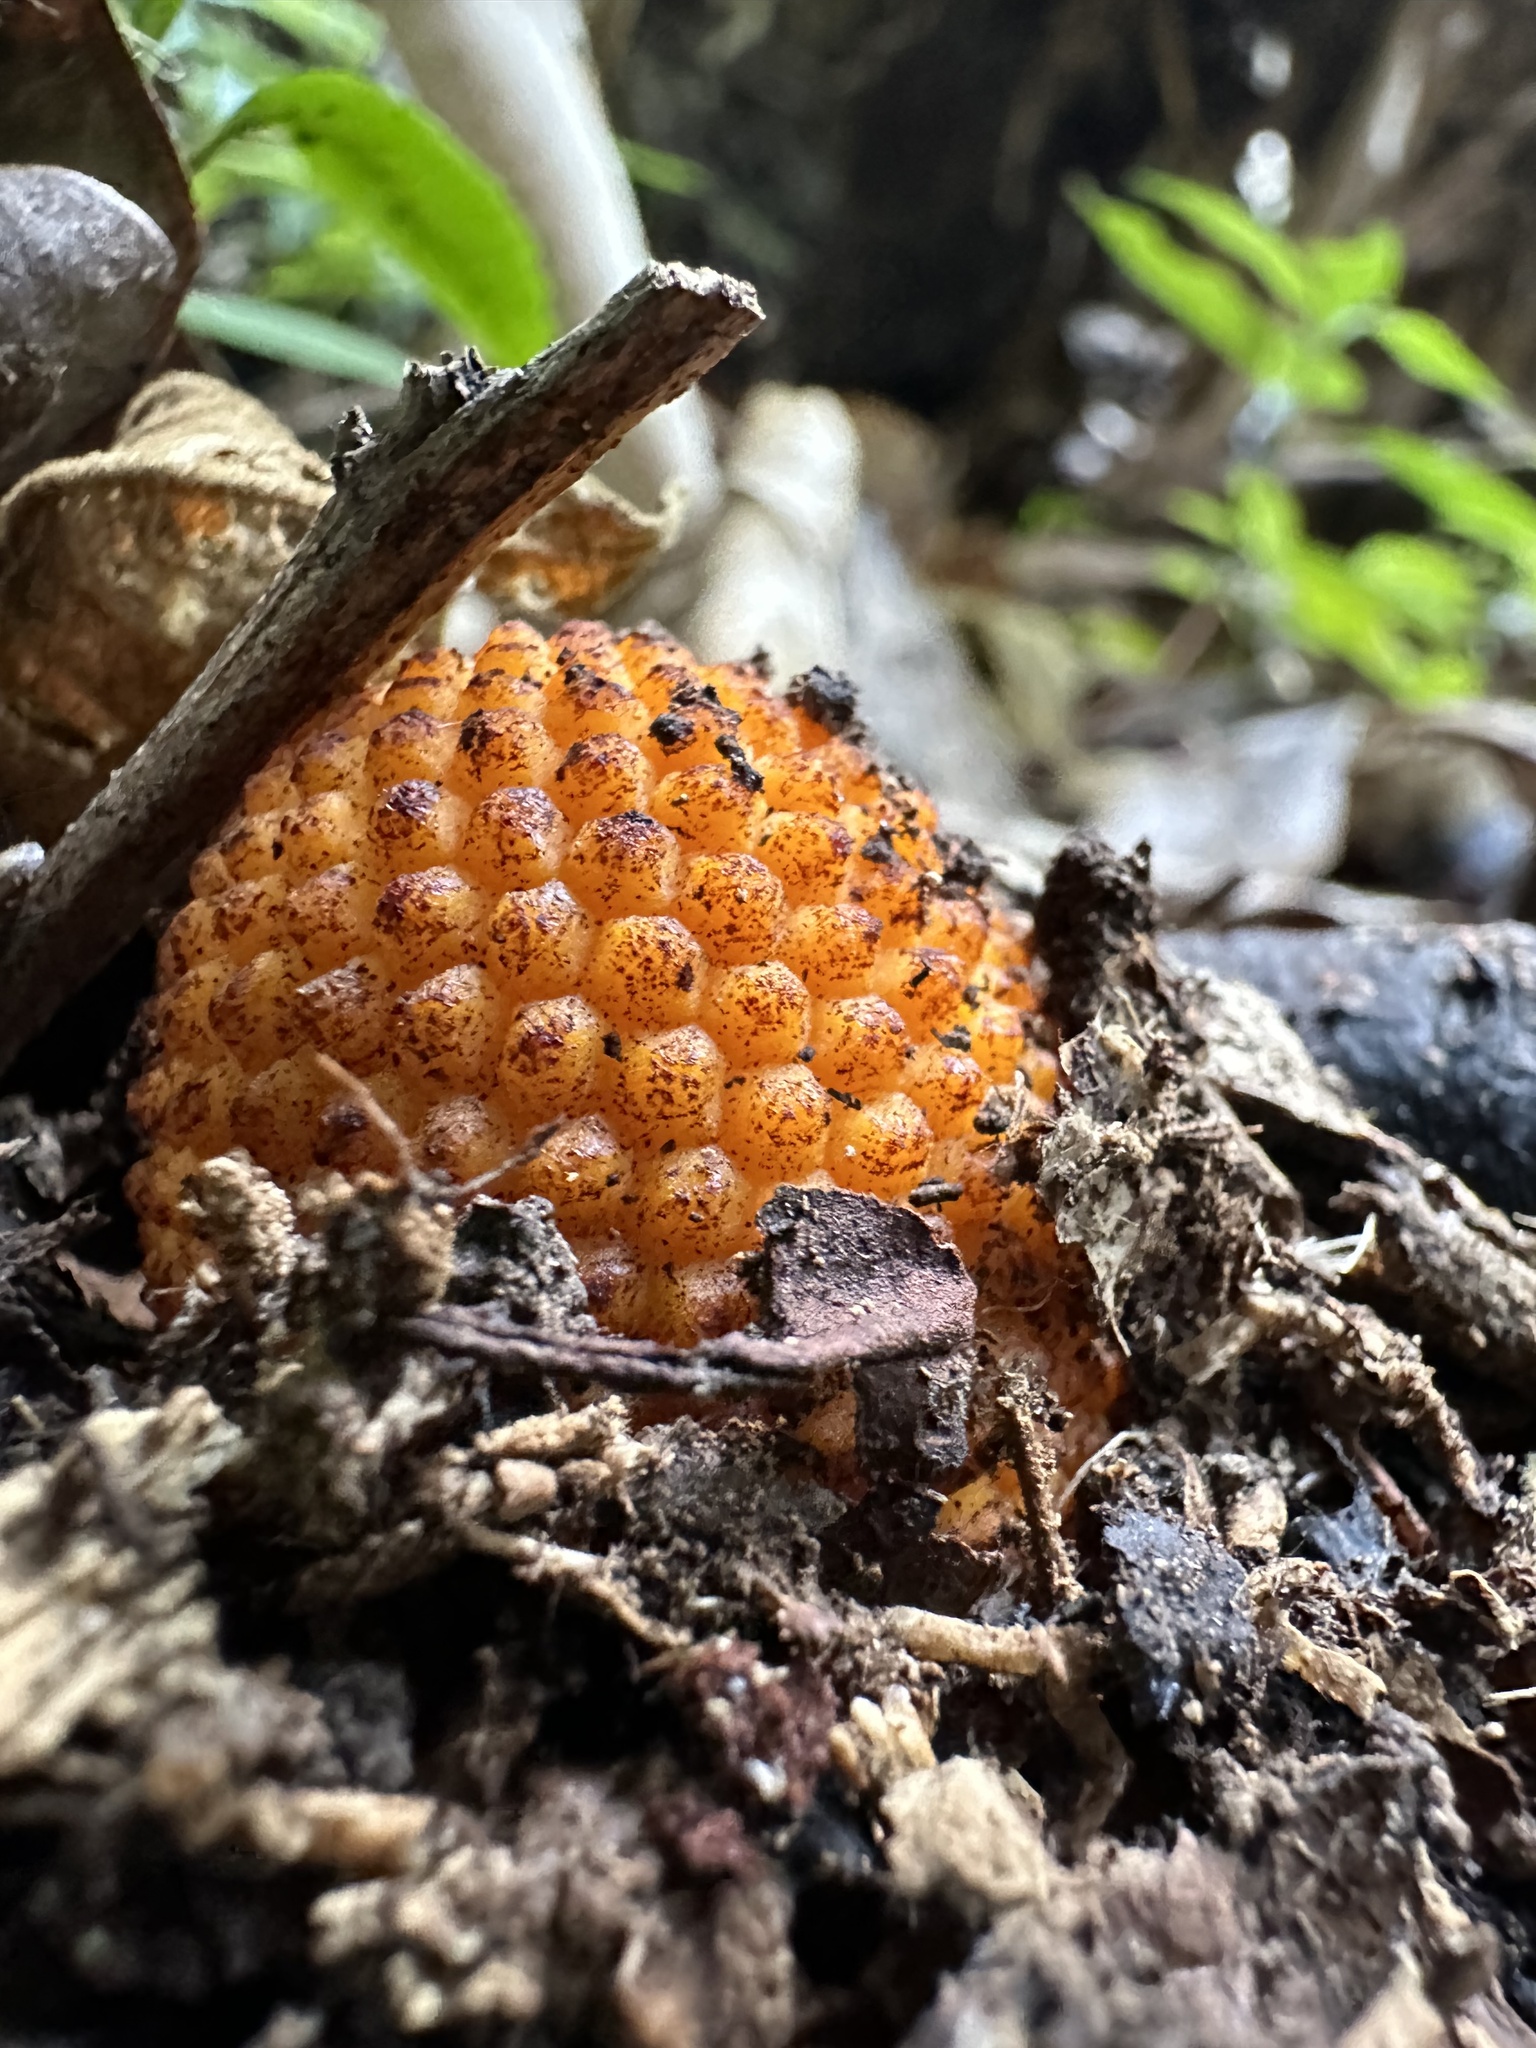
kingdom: Plantae
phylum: Tracheophyta
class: Magnoliopsida
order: Santalales
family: Balanophoraceae
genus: Corynaea
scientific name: Corynaea crassa
